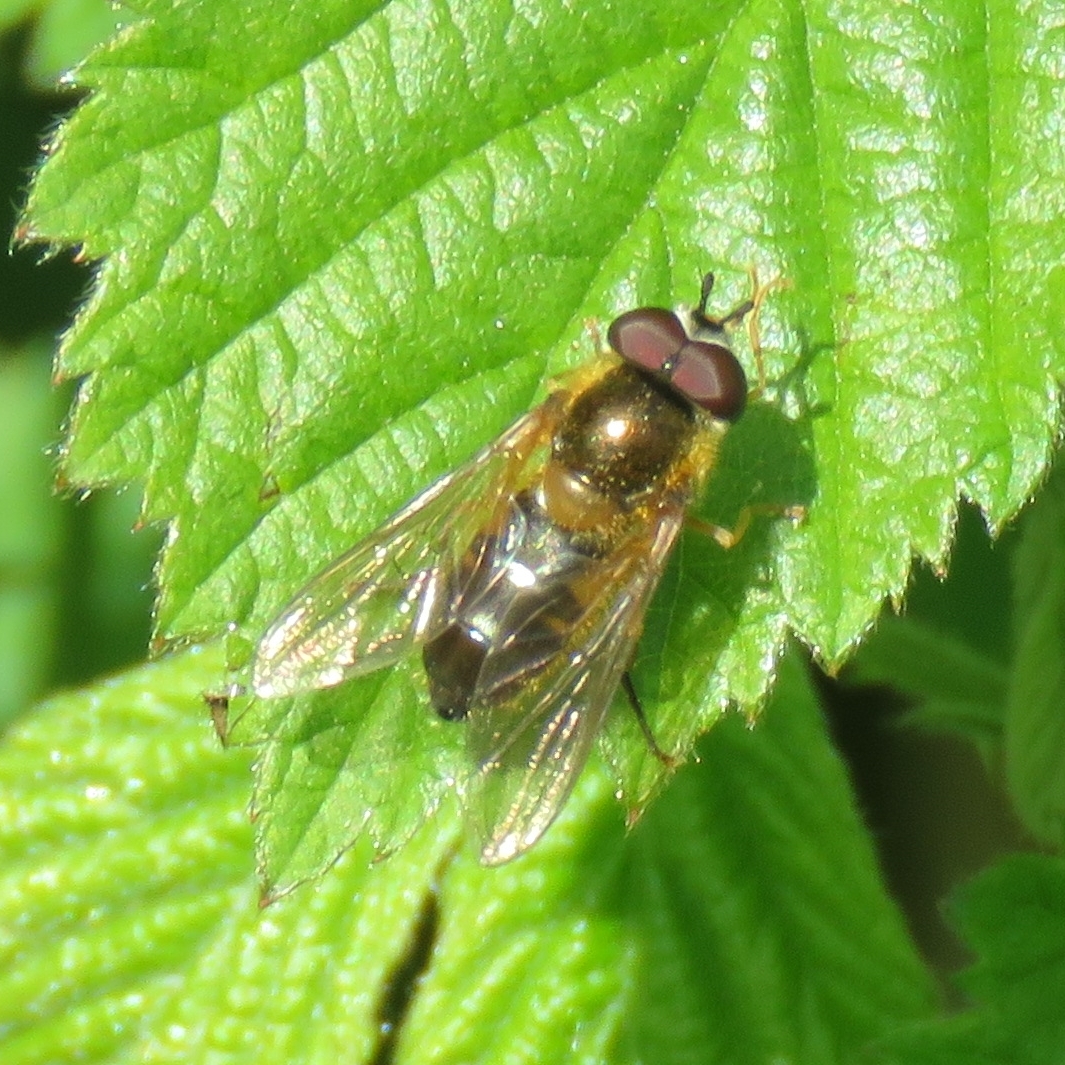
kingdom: Animalia
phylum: Arthropoda
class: Insecta
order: Diptera
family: Syrphidae
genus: Epistrophe
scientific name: Epistrophe eligans
